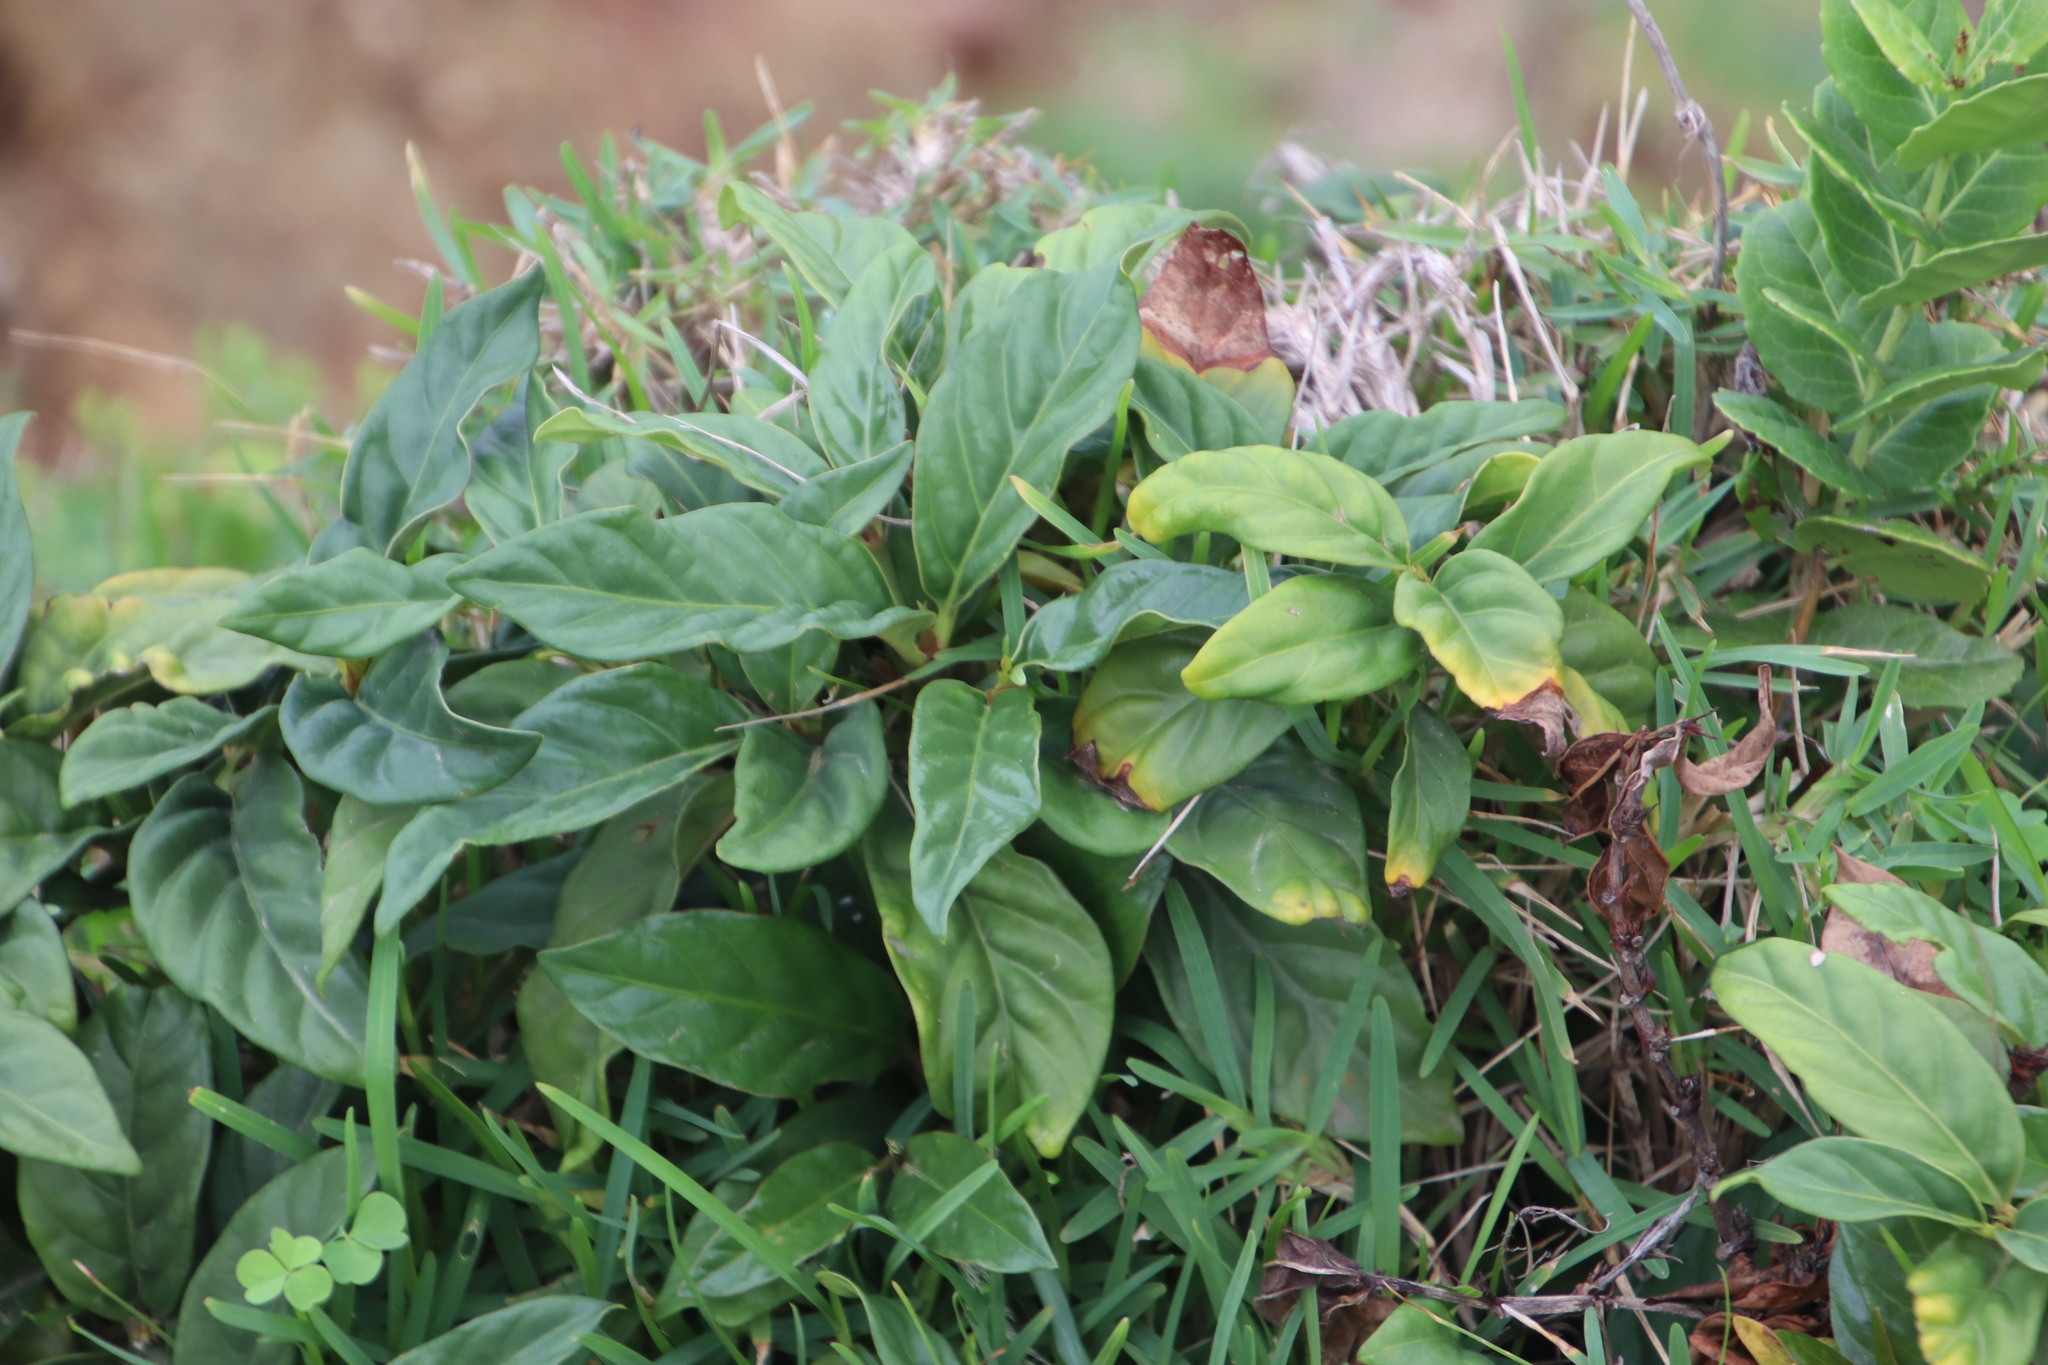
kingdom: Plantae
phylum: Tracheophyta
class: Magnoliopsida
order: Gentianales
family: Rubiaceae
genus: Mitriostigma
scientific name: Mitriostigma axillare
